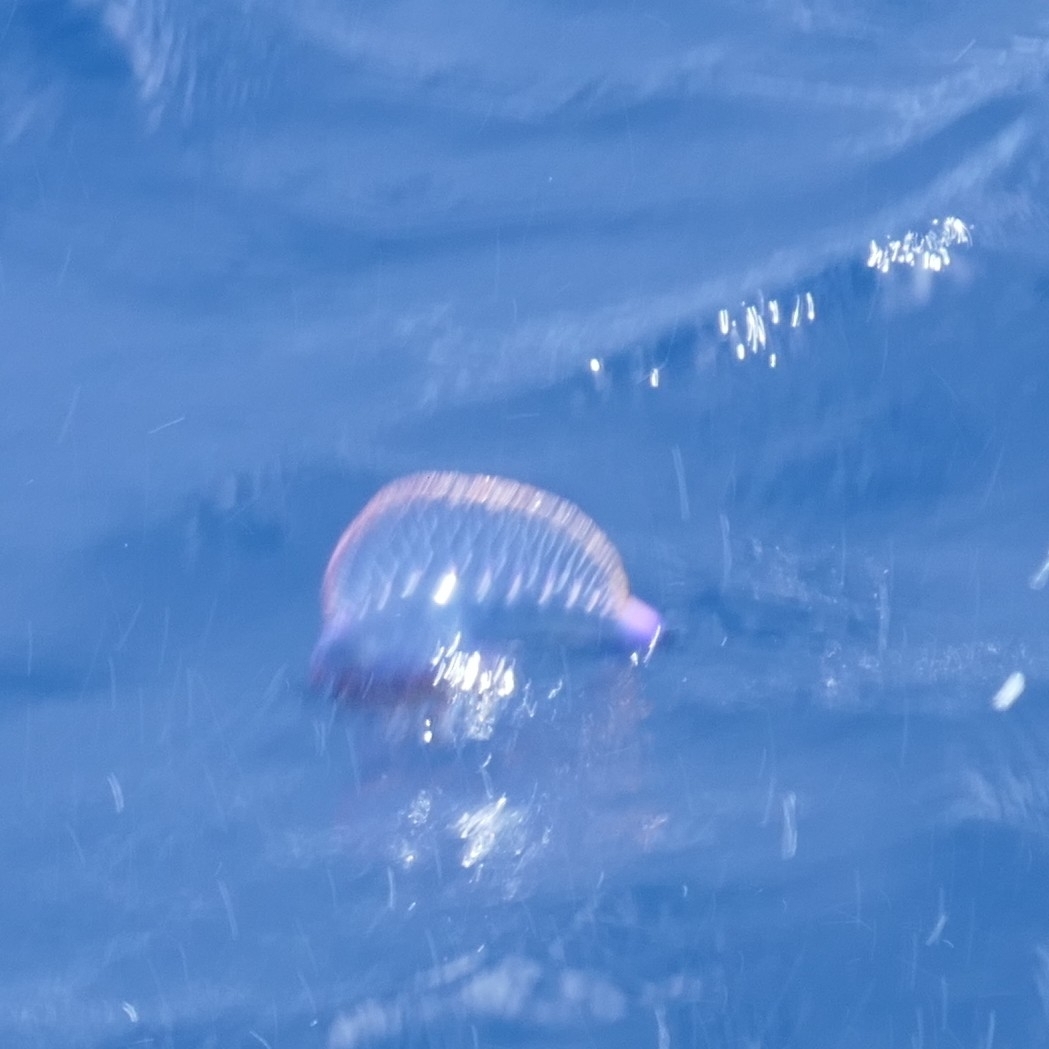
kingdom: Animalia
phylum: Cnidaria
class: Hydrozoa
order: Siphonophorae
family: Physaliidae
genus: Physalia
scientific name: Physalia physalis
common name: Portuguese man-of-war
